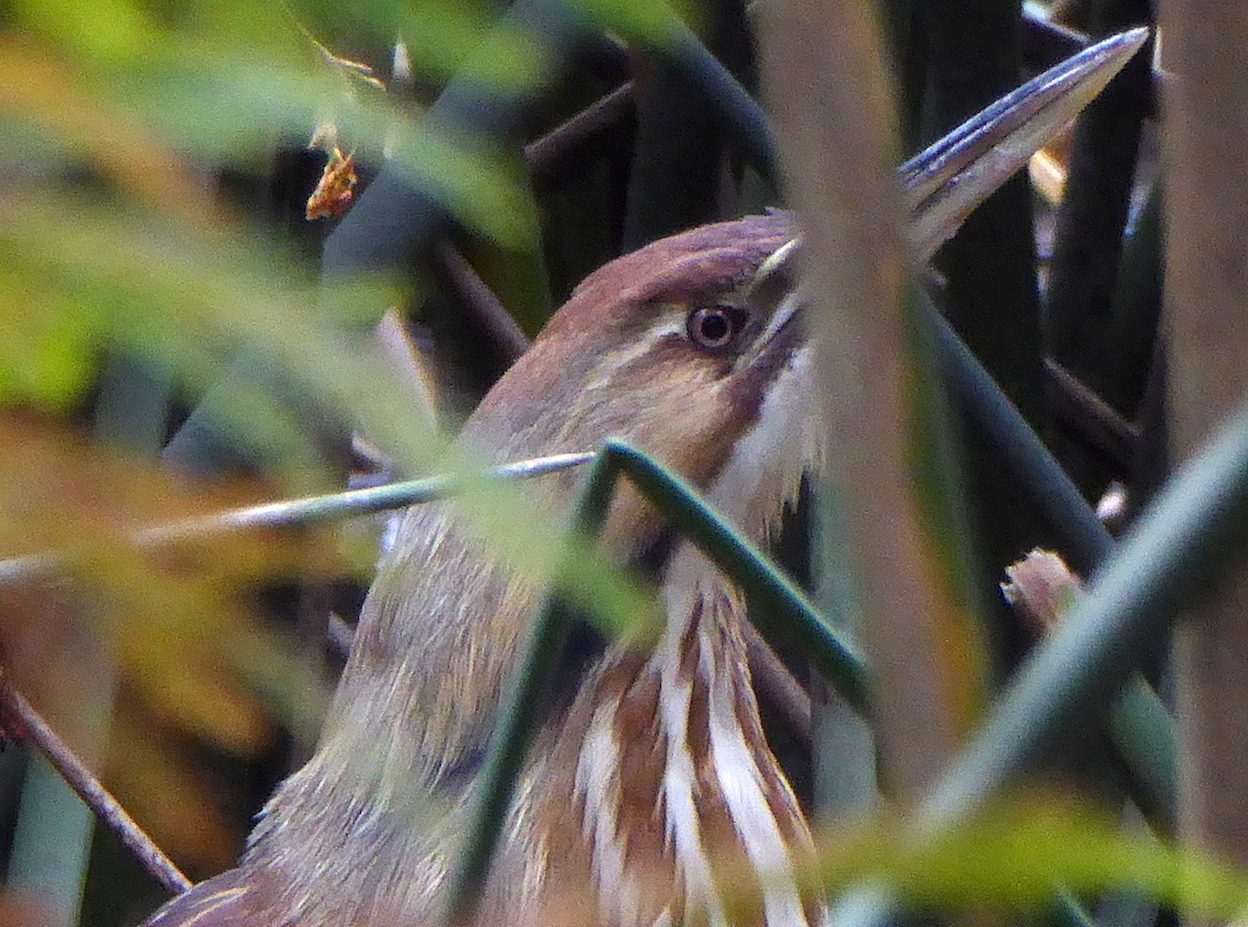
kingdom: Animalia
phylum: Chordata
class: Aves
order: Pelecaniformes
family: Ardeidae
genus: Botaurus
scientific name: Botaurus lentiginosus
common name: American bittern
